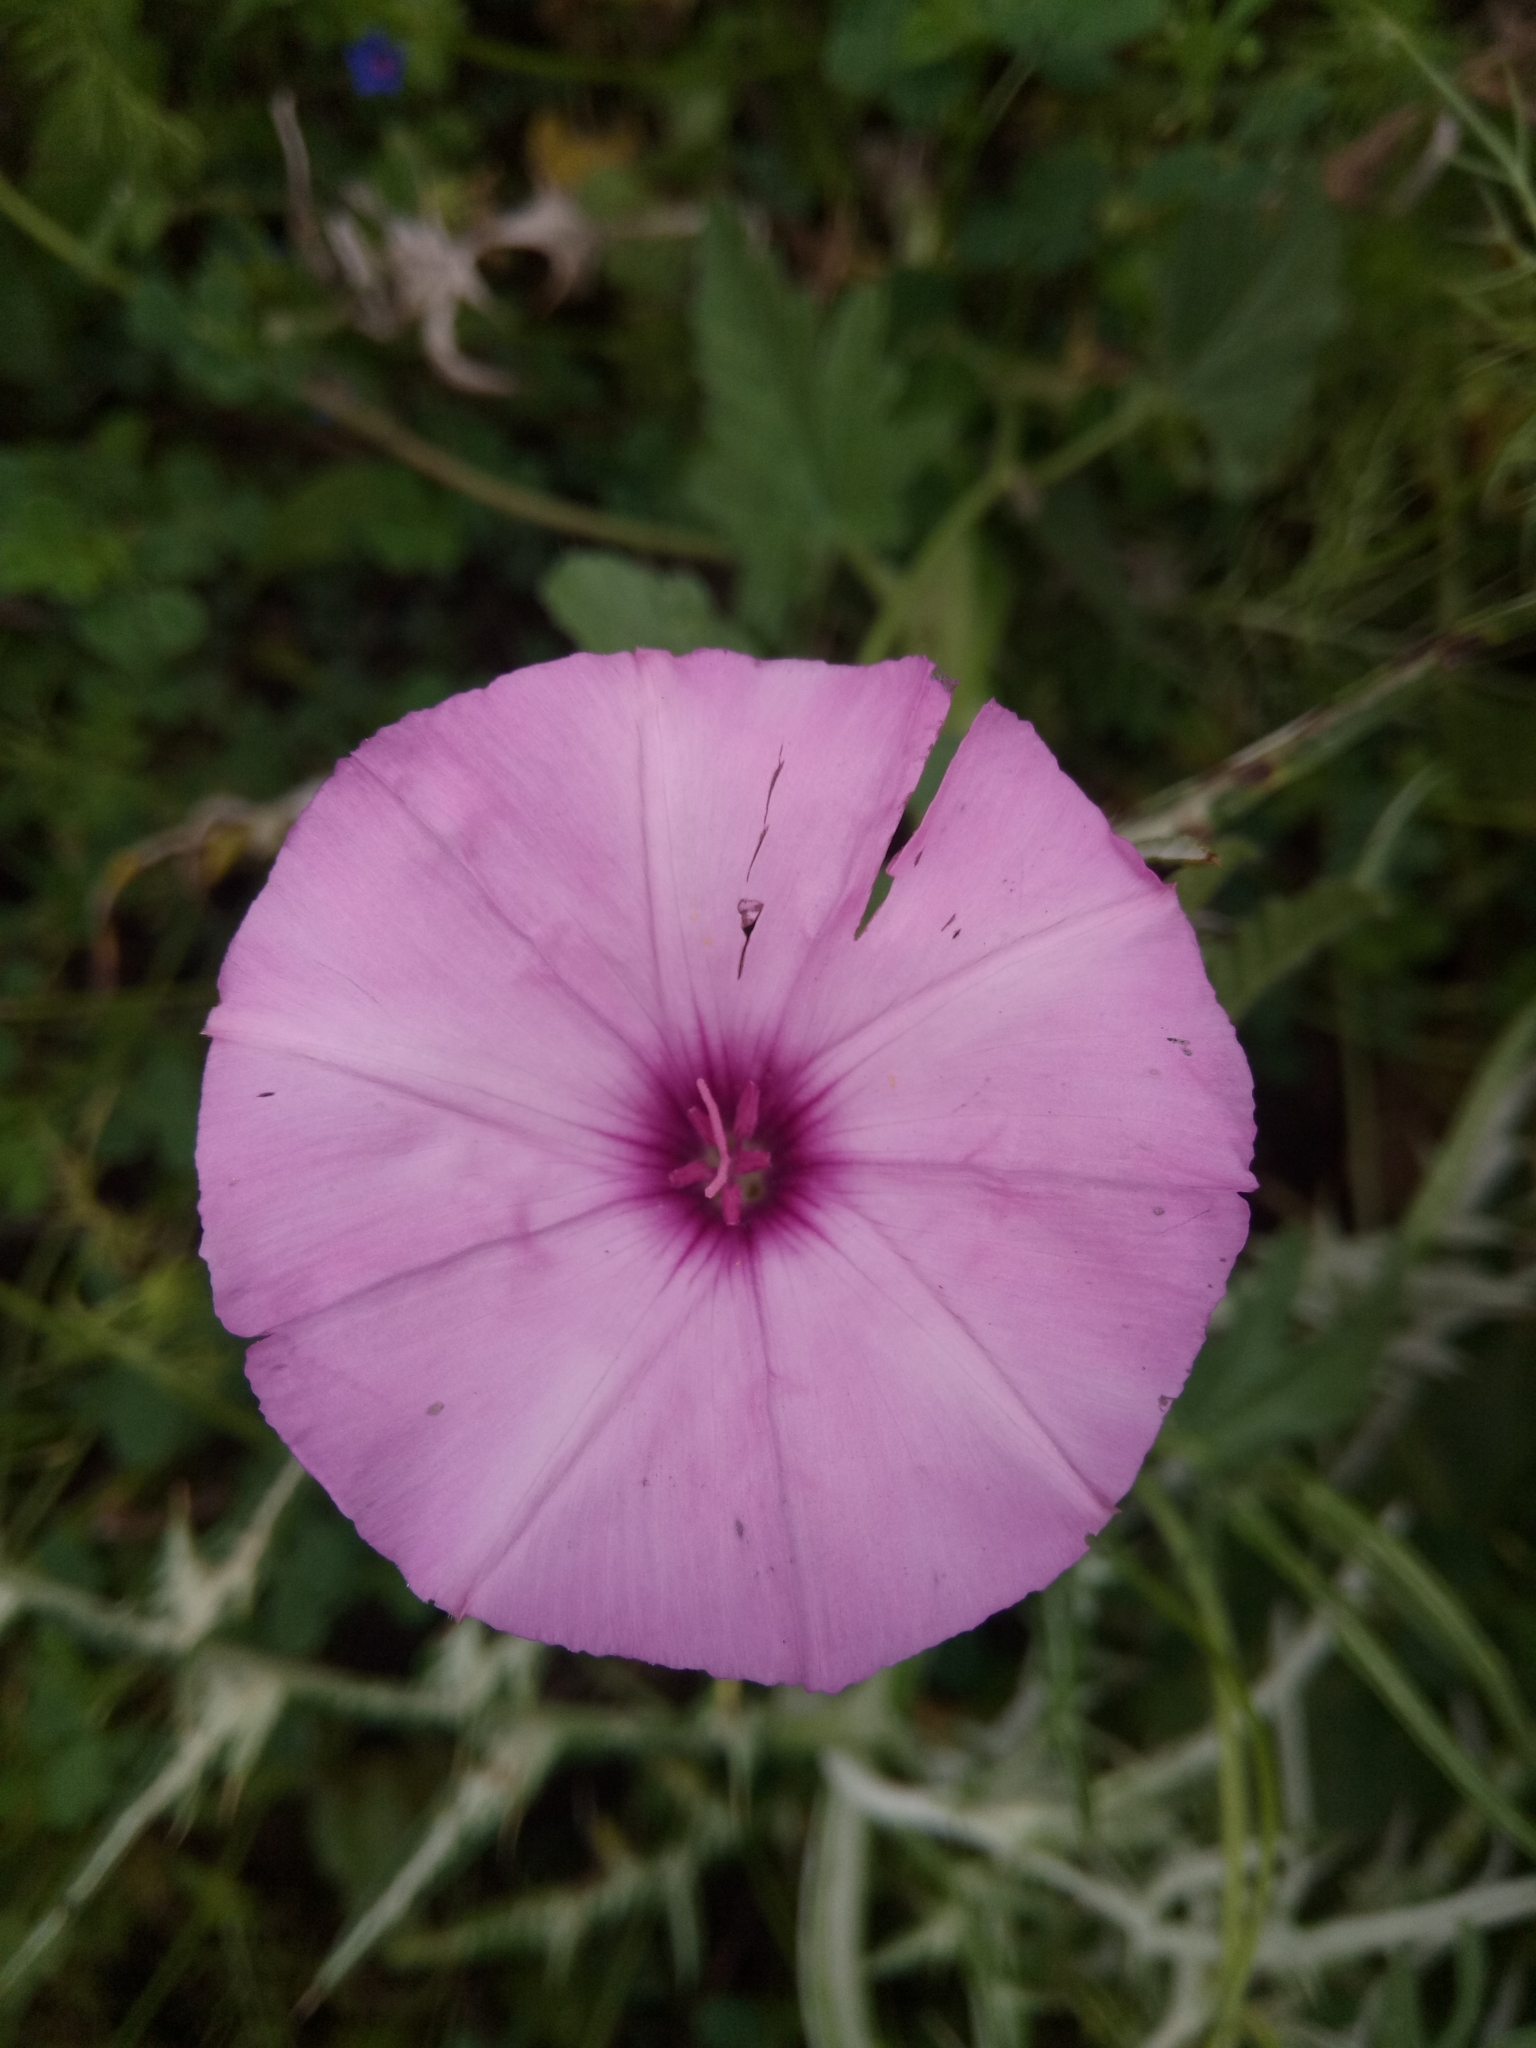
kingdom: Plantae
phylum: Tracheophyta
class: Magnoliopsida
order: Solanales
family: Convolvulaceae
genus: Convolvulus
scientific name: Convolvulus althaeoides
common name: Mallow bindweed
